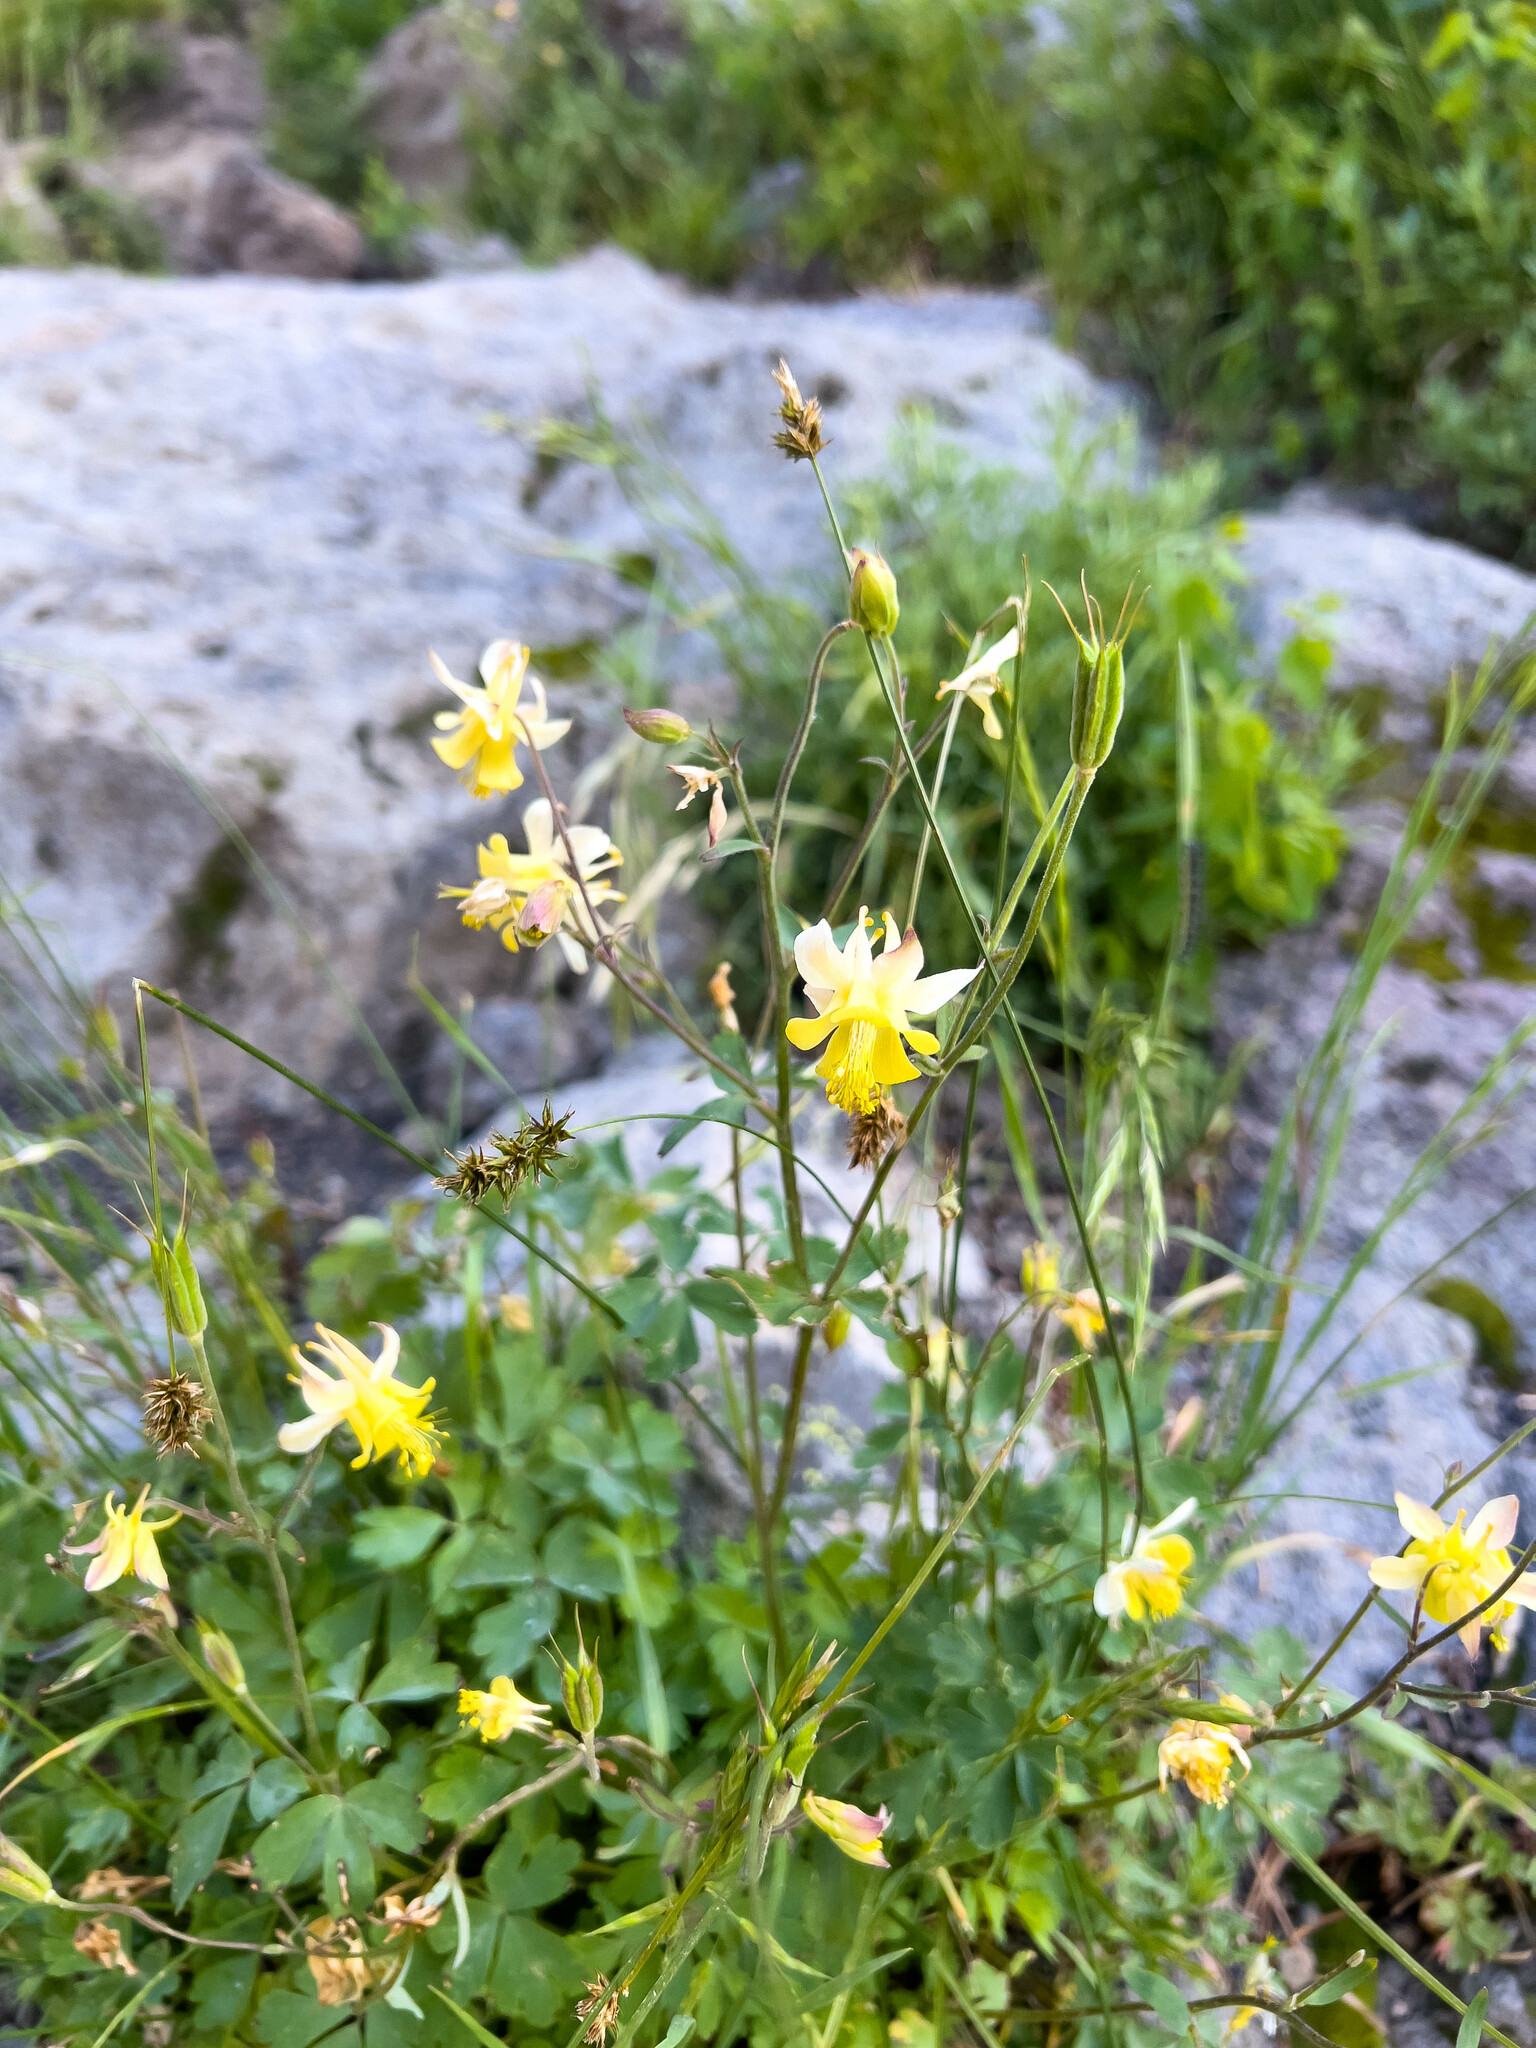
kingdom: Plantae
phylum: Tracheophyta
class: Magnoliopsida
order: Ranunculales
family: Ranunculaceae
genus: Aquilegia
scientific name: Aquilegia flavescens
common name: Yellow columbine
